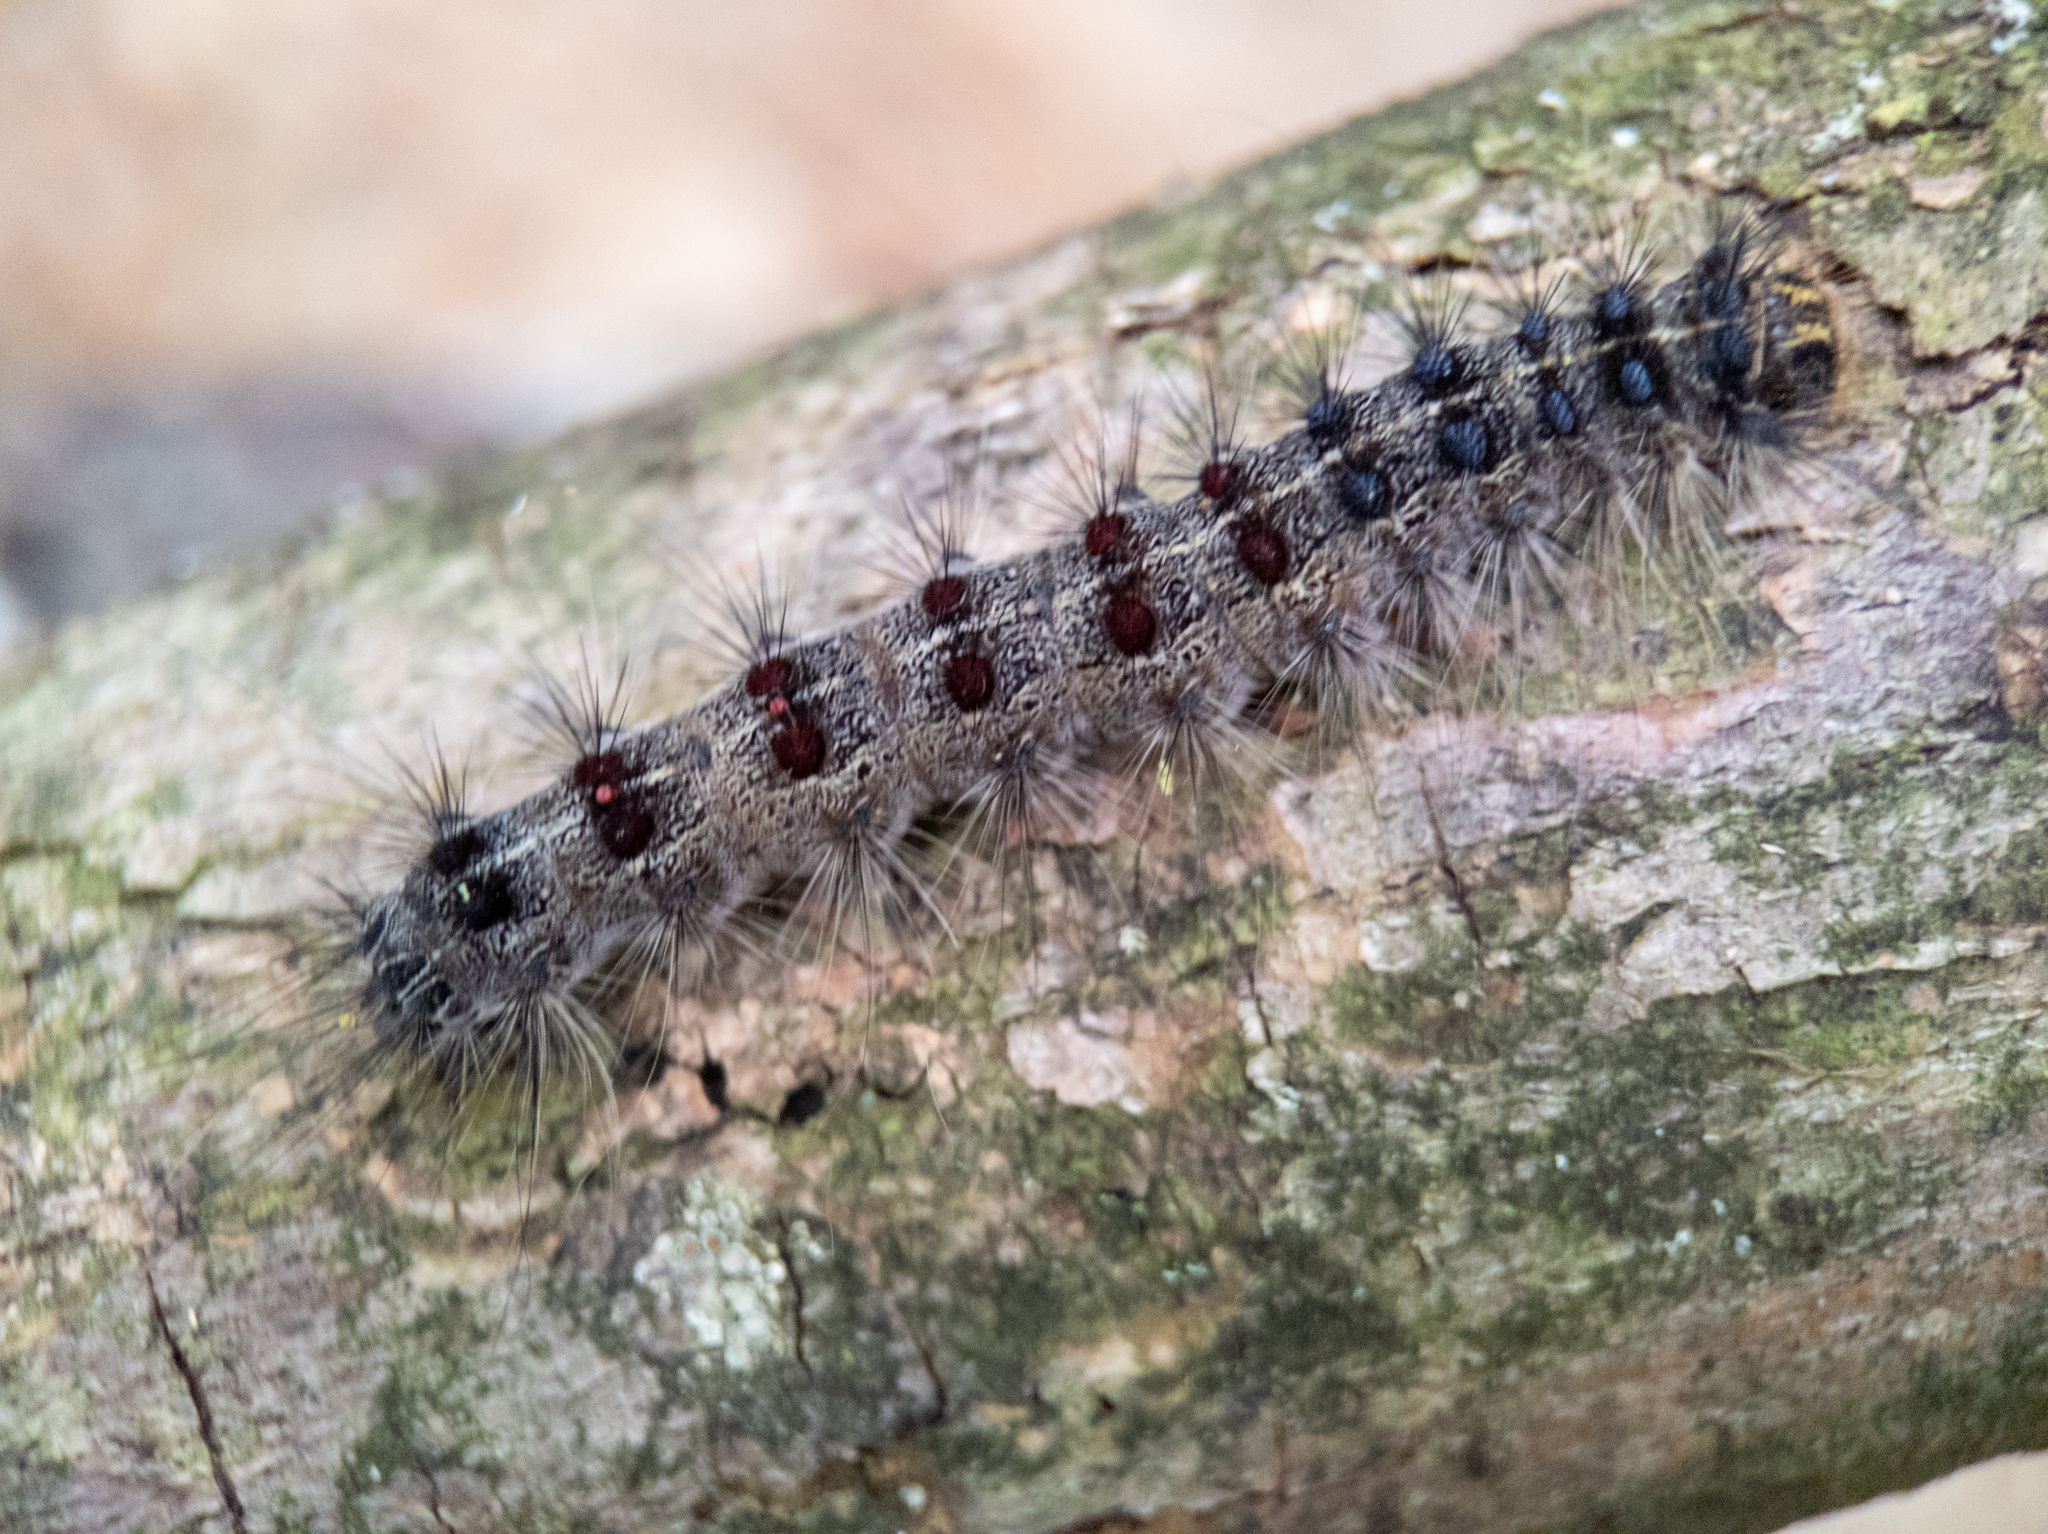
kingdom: Animalia
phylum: Arthropoda
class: Insecta
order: Lepidoptera
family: Erebidae
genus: Lymantria
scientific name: Lymantria dispar
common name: Gypsy moth
